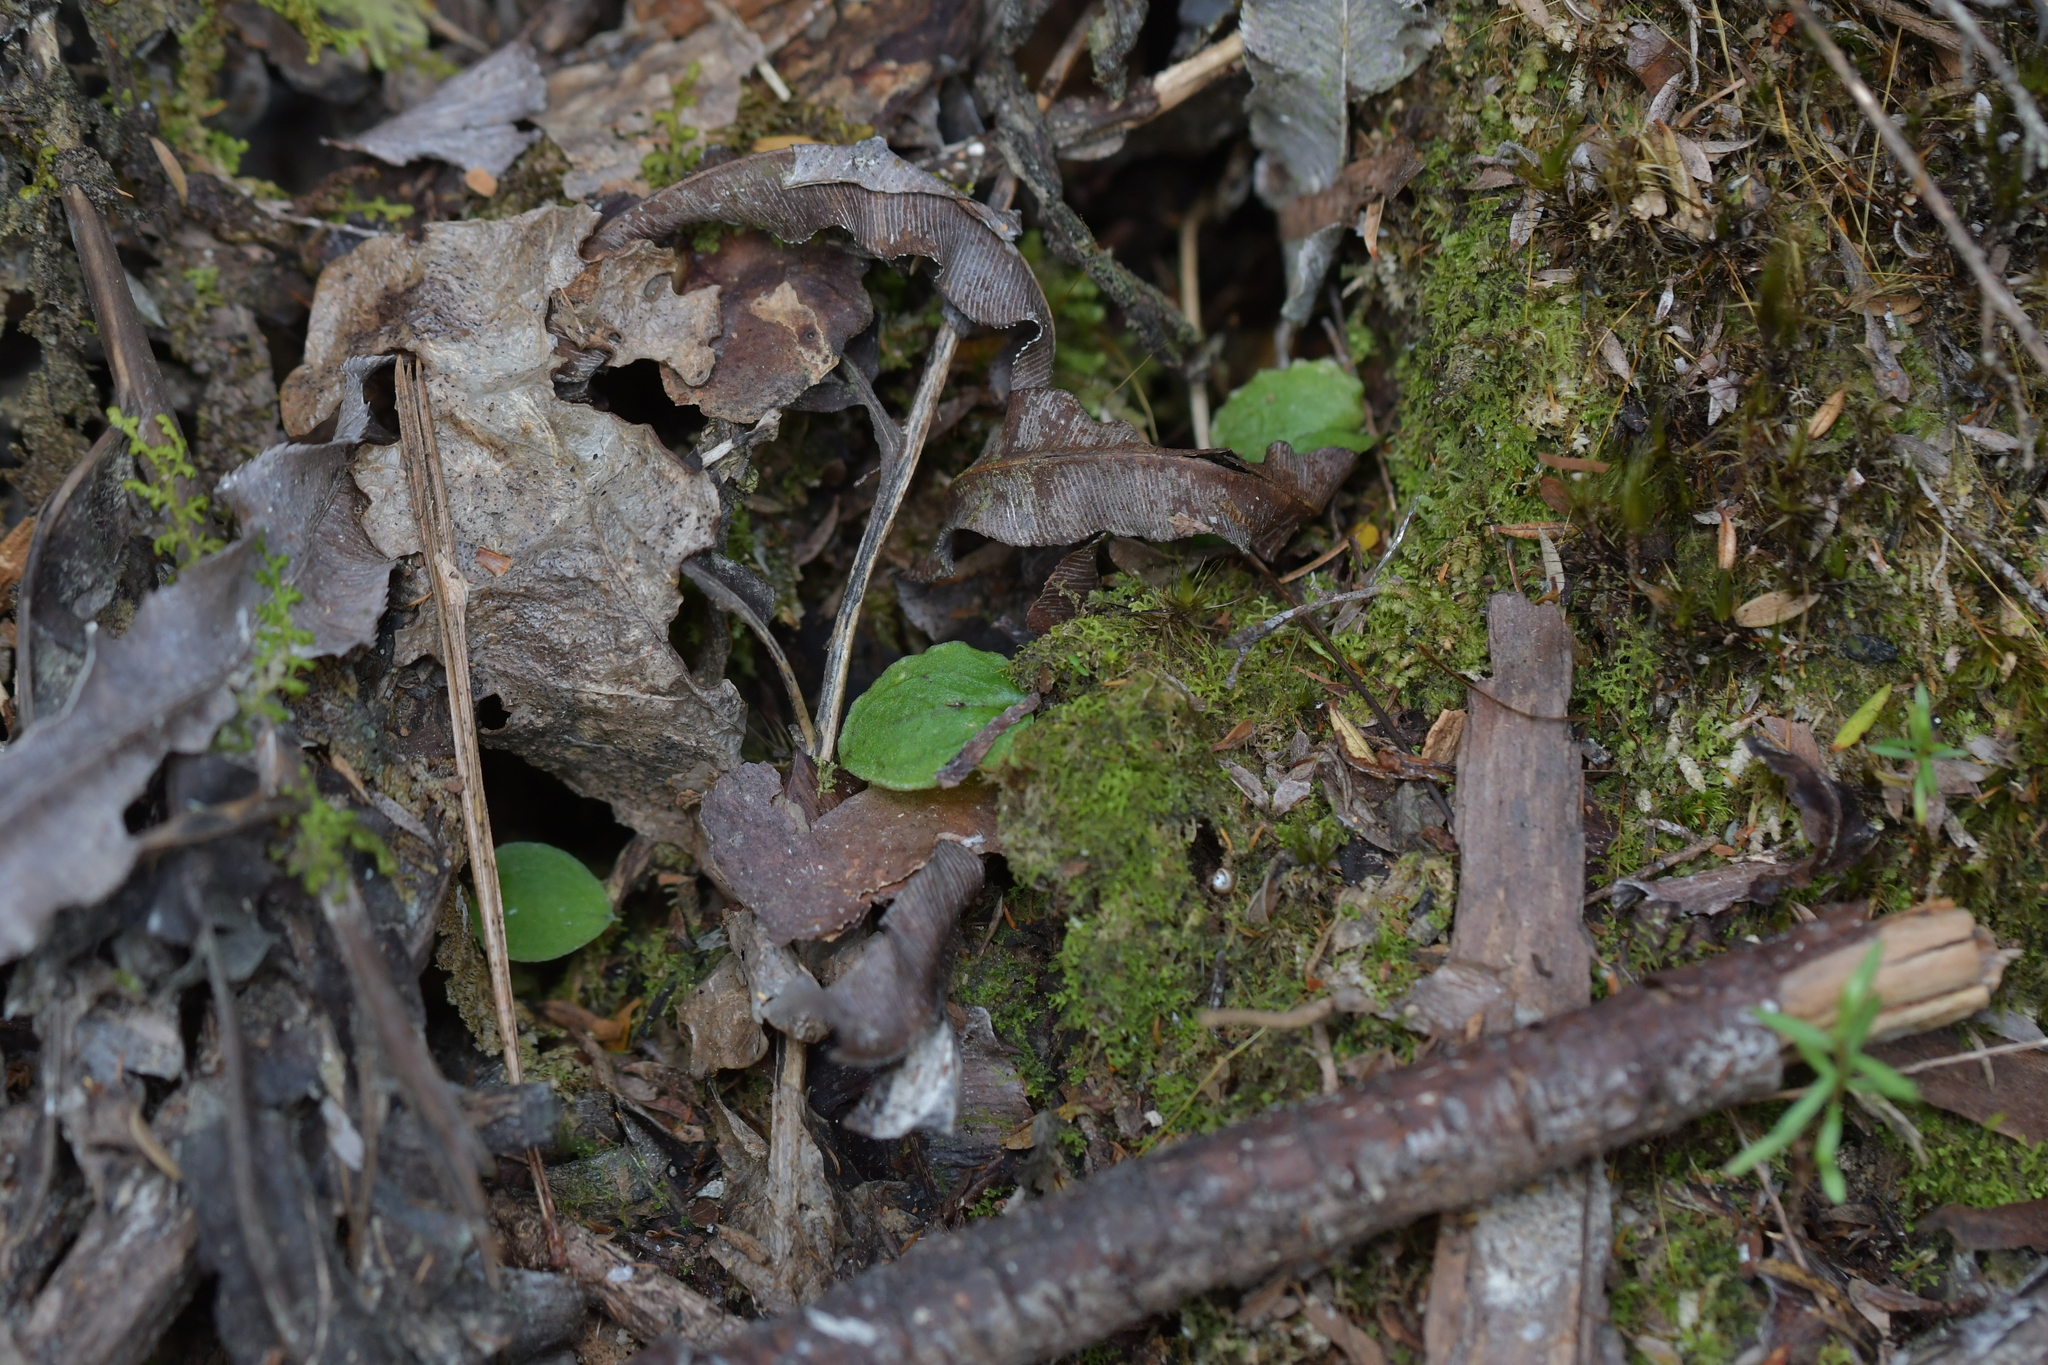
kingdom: Plantae
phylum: Tracheophyta
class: Liliopsida
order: Asparagales
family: Orchidaceae
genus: Corybas
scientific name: Corybas oblongus
